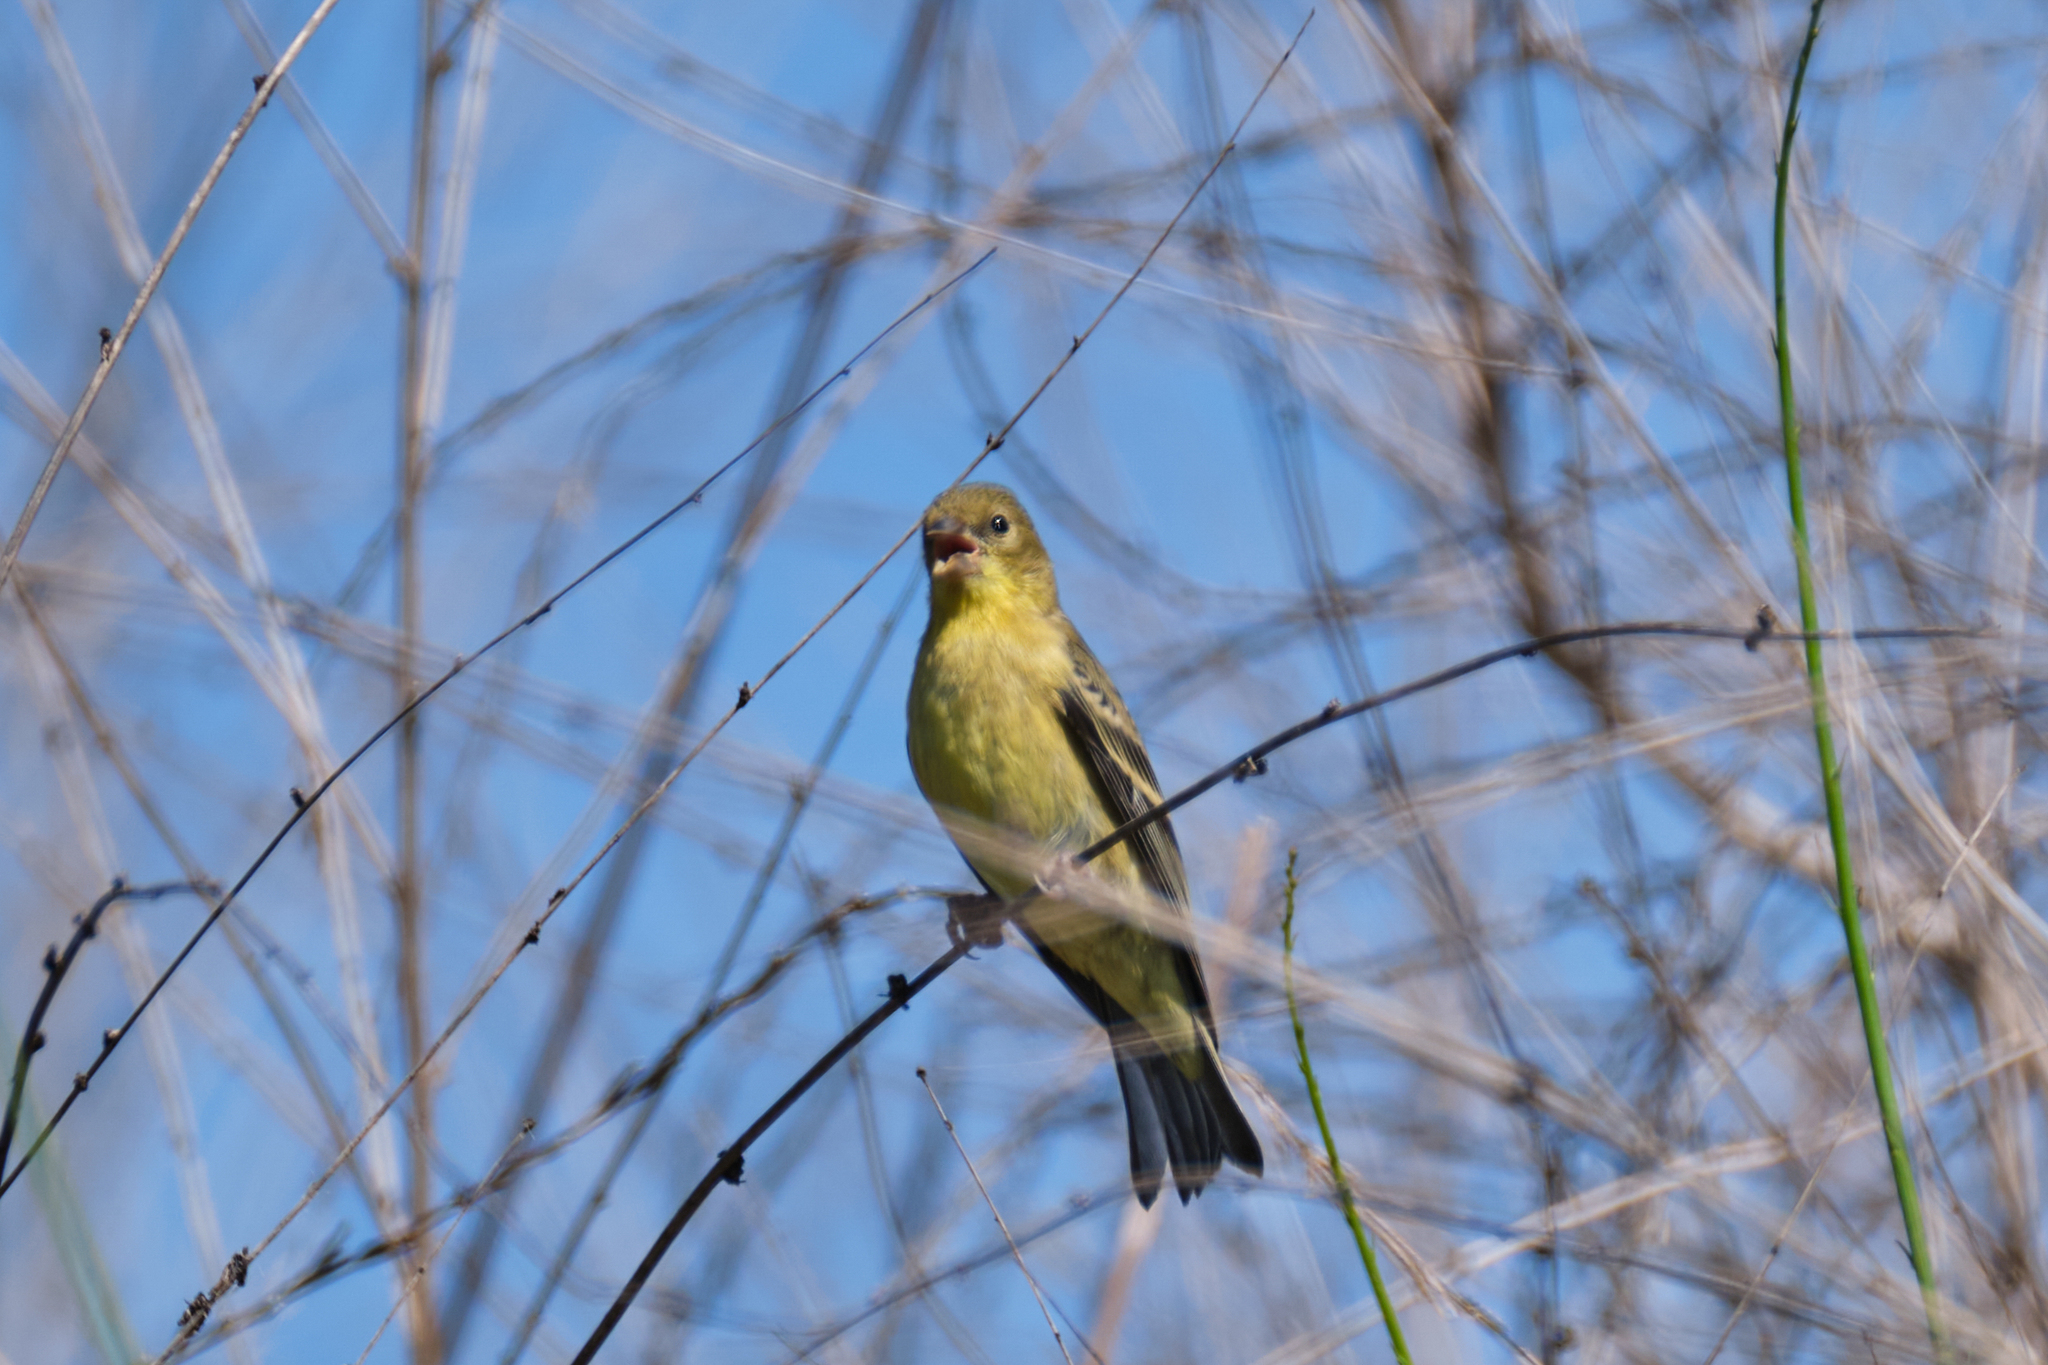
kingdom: Animalia
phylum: Chordata
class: Aves
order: Passeriformes
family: Fringillidae
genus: Spinus
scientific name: Spinus psaltria
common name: Lesser goldfinch
